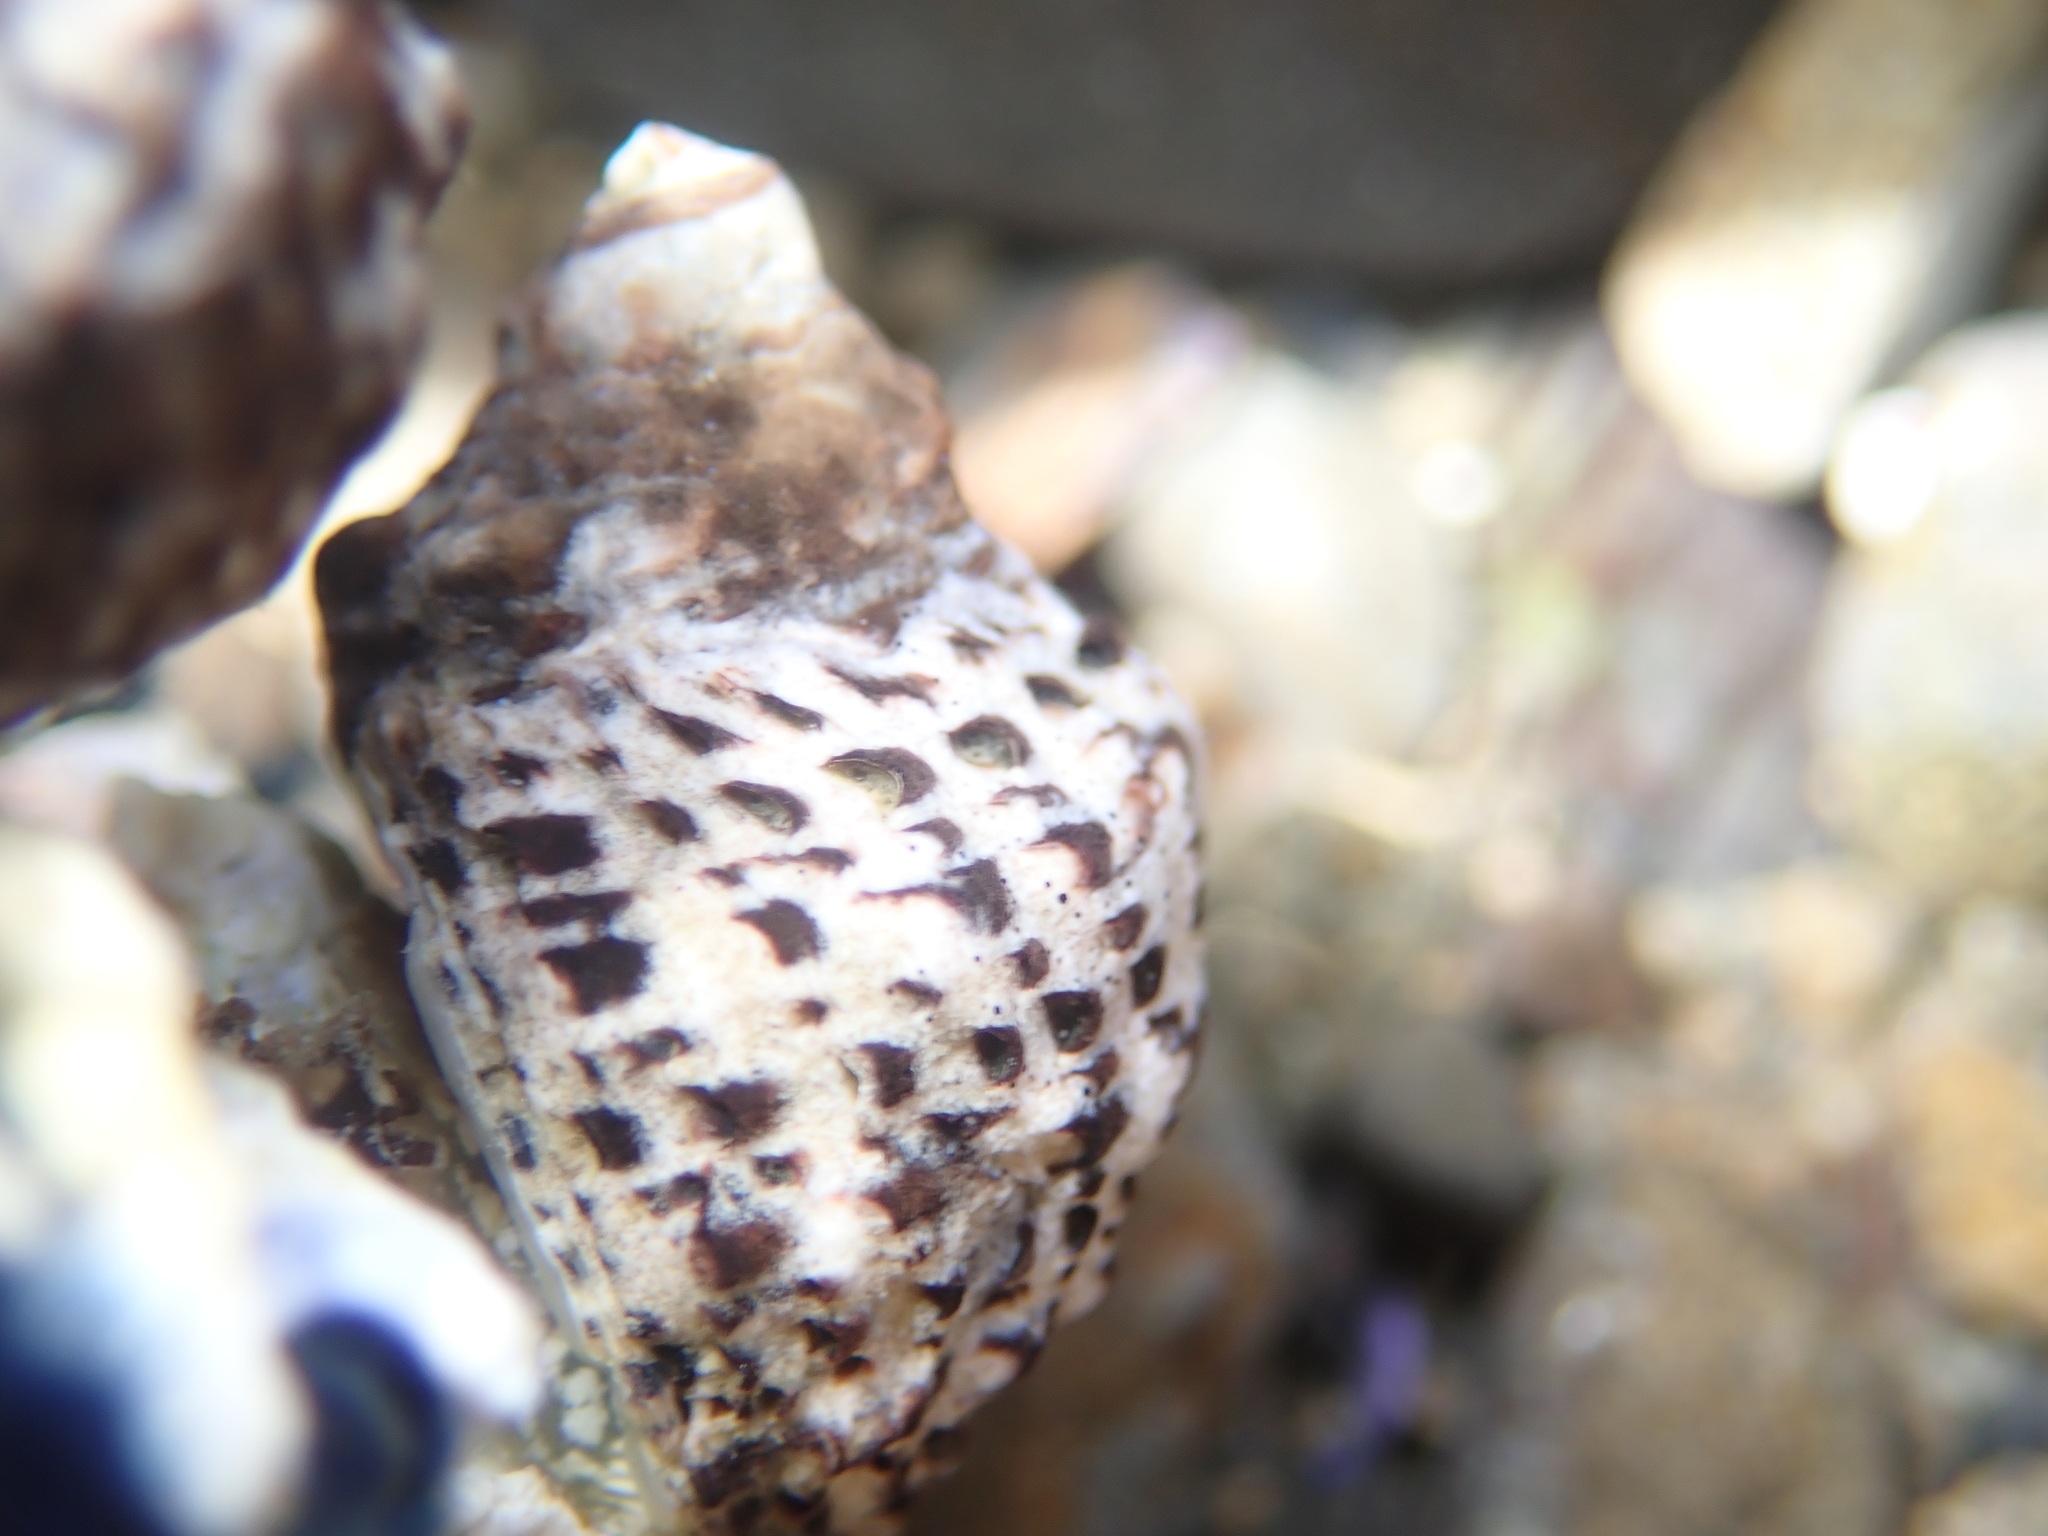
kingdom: Animalia
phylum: Mollusca
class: Gastropoda
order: Neogastropoda
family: Muricidae
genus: Haustrum
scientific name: Haustrum scobina
